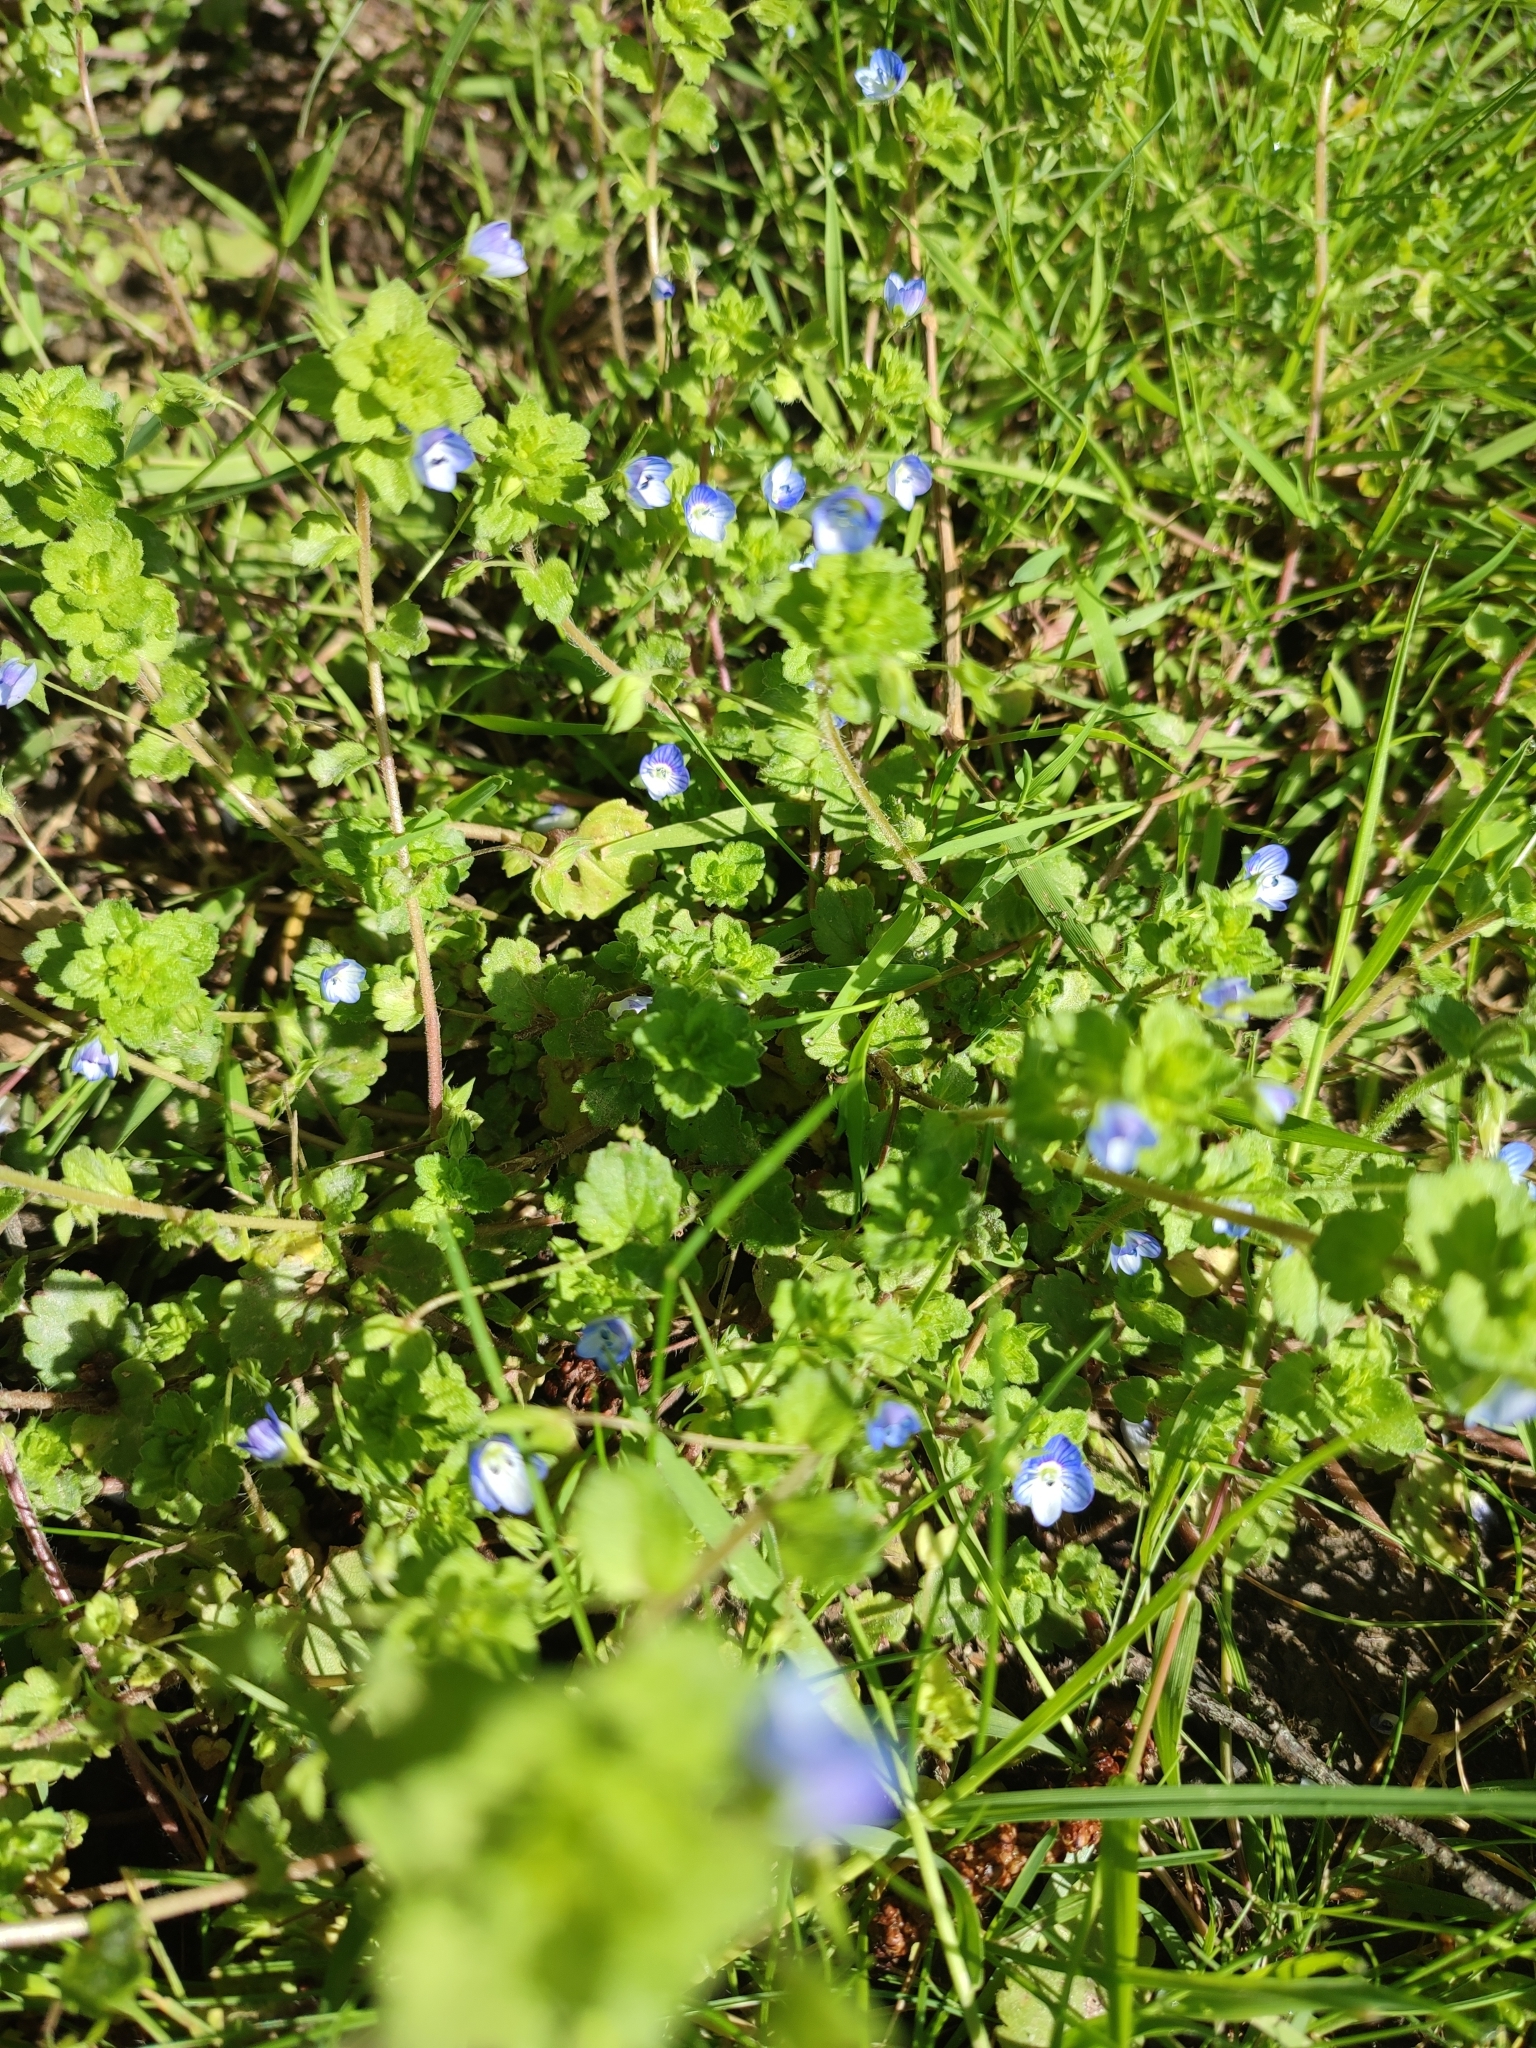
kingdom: Plantae
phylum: Tracheophyta
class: Magnoliopsida
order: Lamiales
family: Plantaginaceae
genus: Veronica
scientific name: Veronica persica
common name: Common field-speedwell
